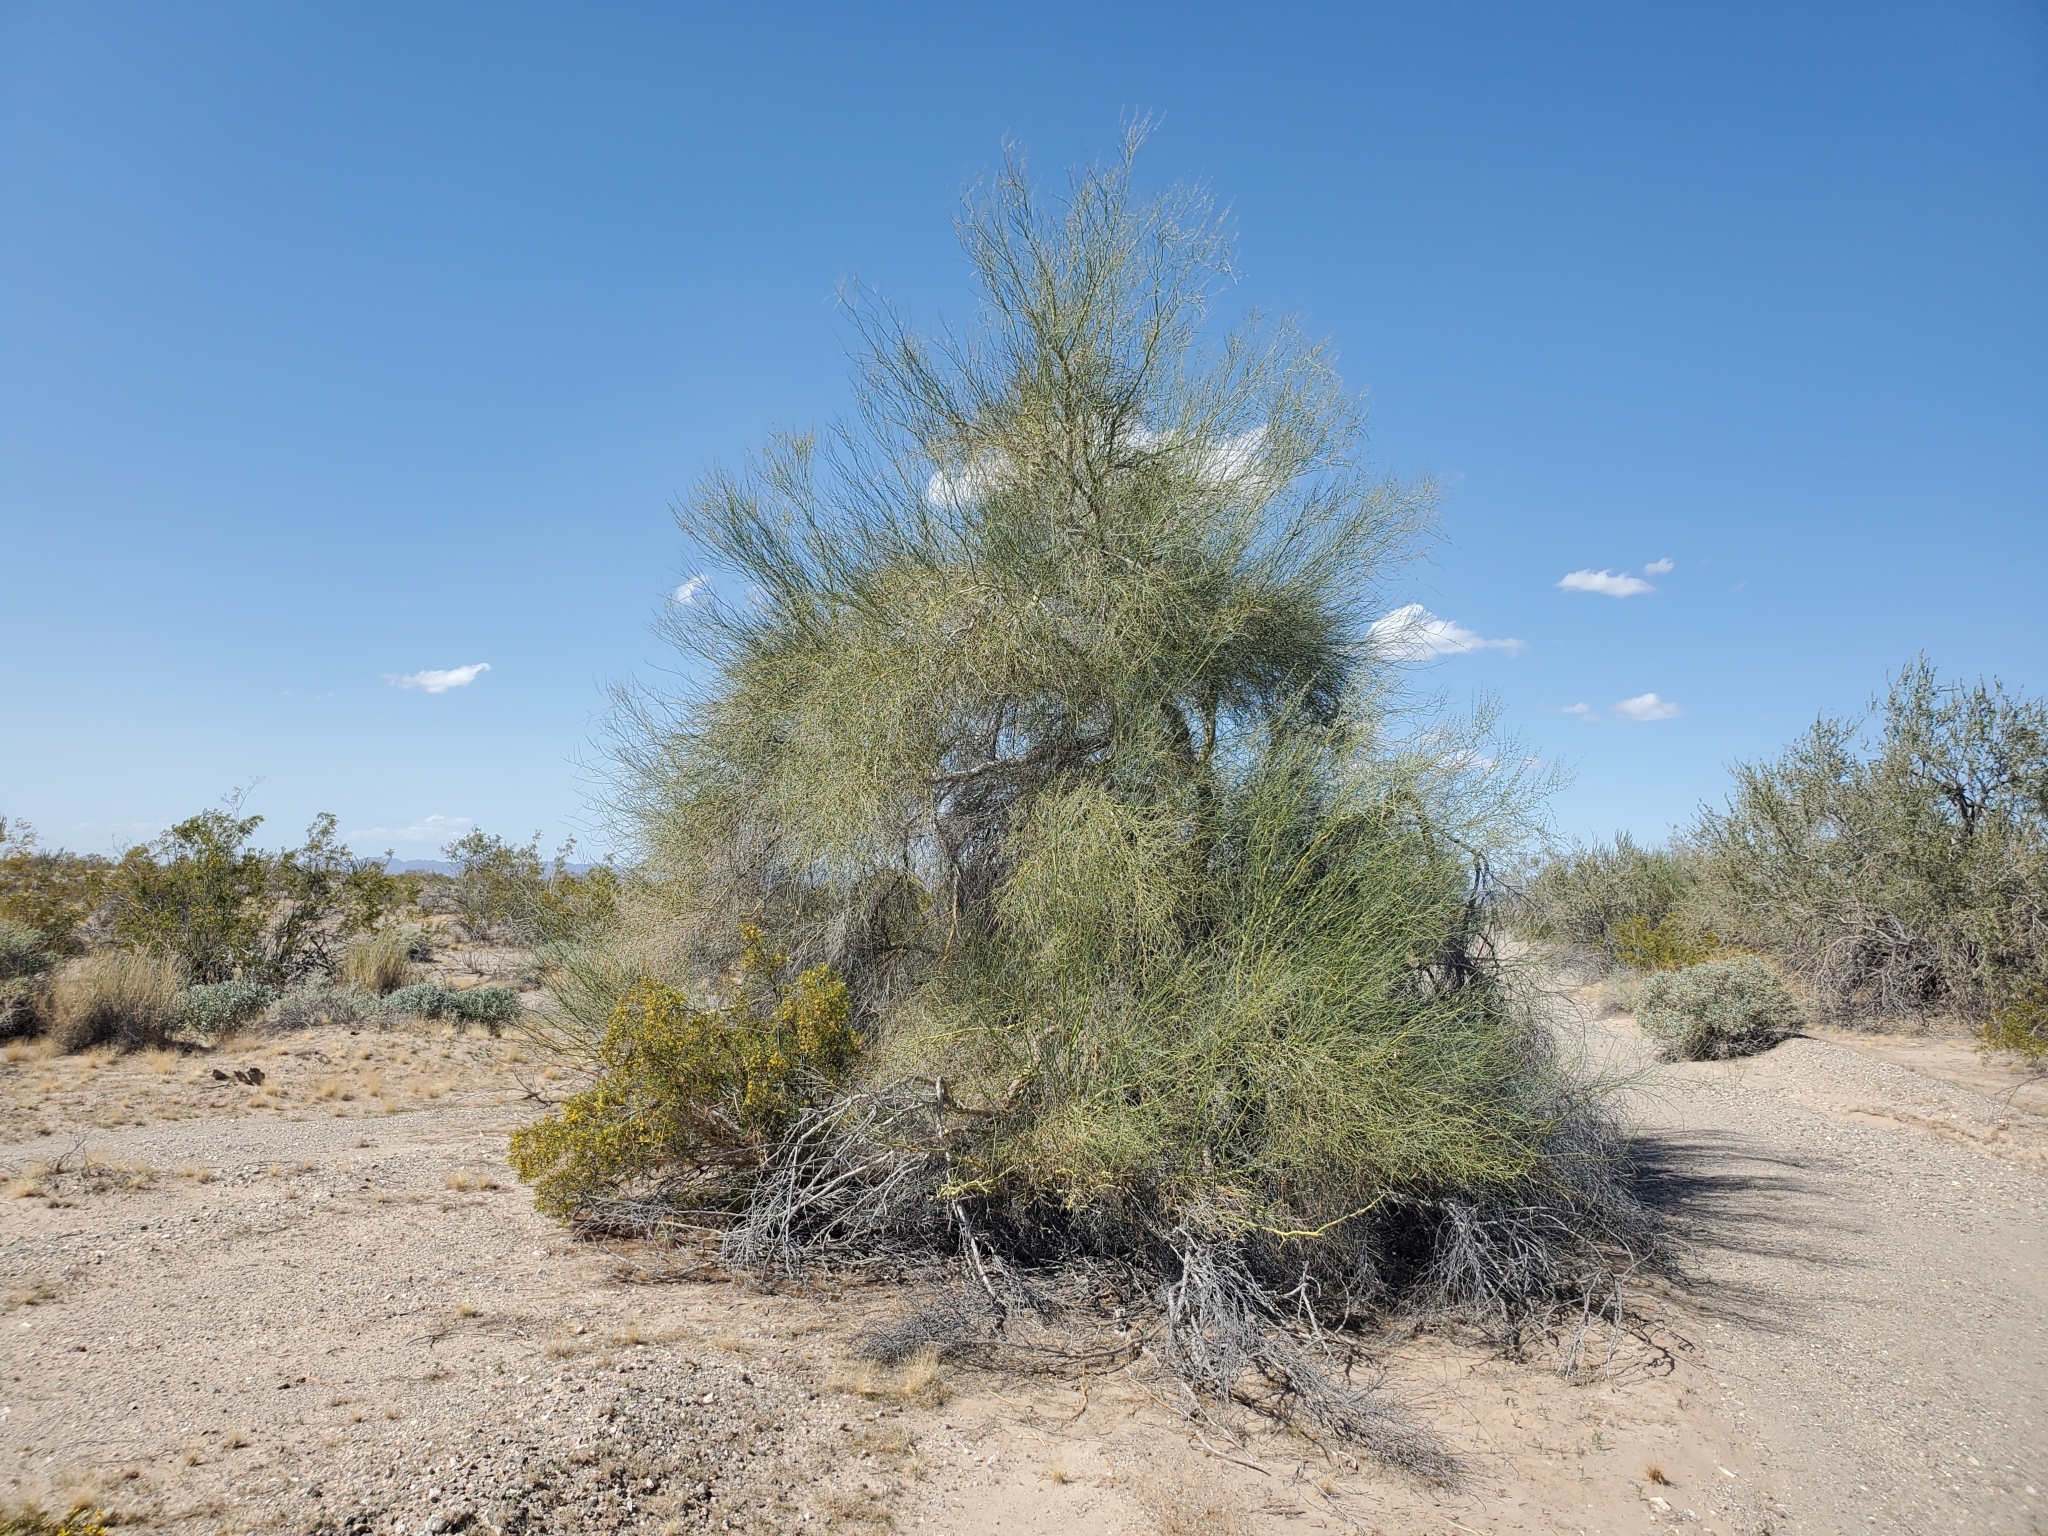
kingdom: Plantae
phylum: Tracheophyta
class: Magnoliopsida
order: Fabales
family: Fabaceae
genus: Parkinsonia
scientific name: Parkinsonia florida
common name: Blue paloverde
